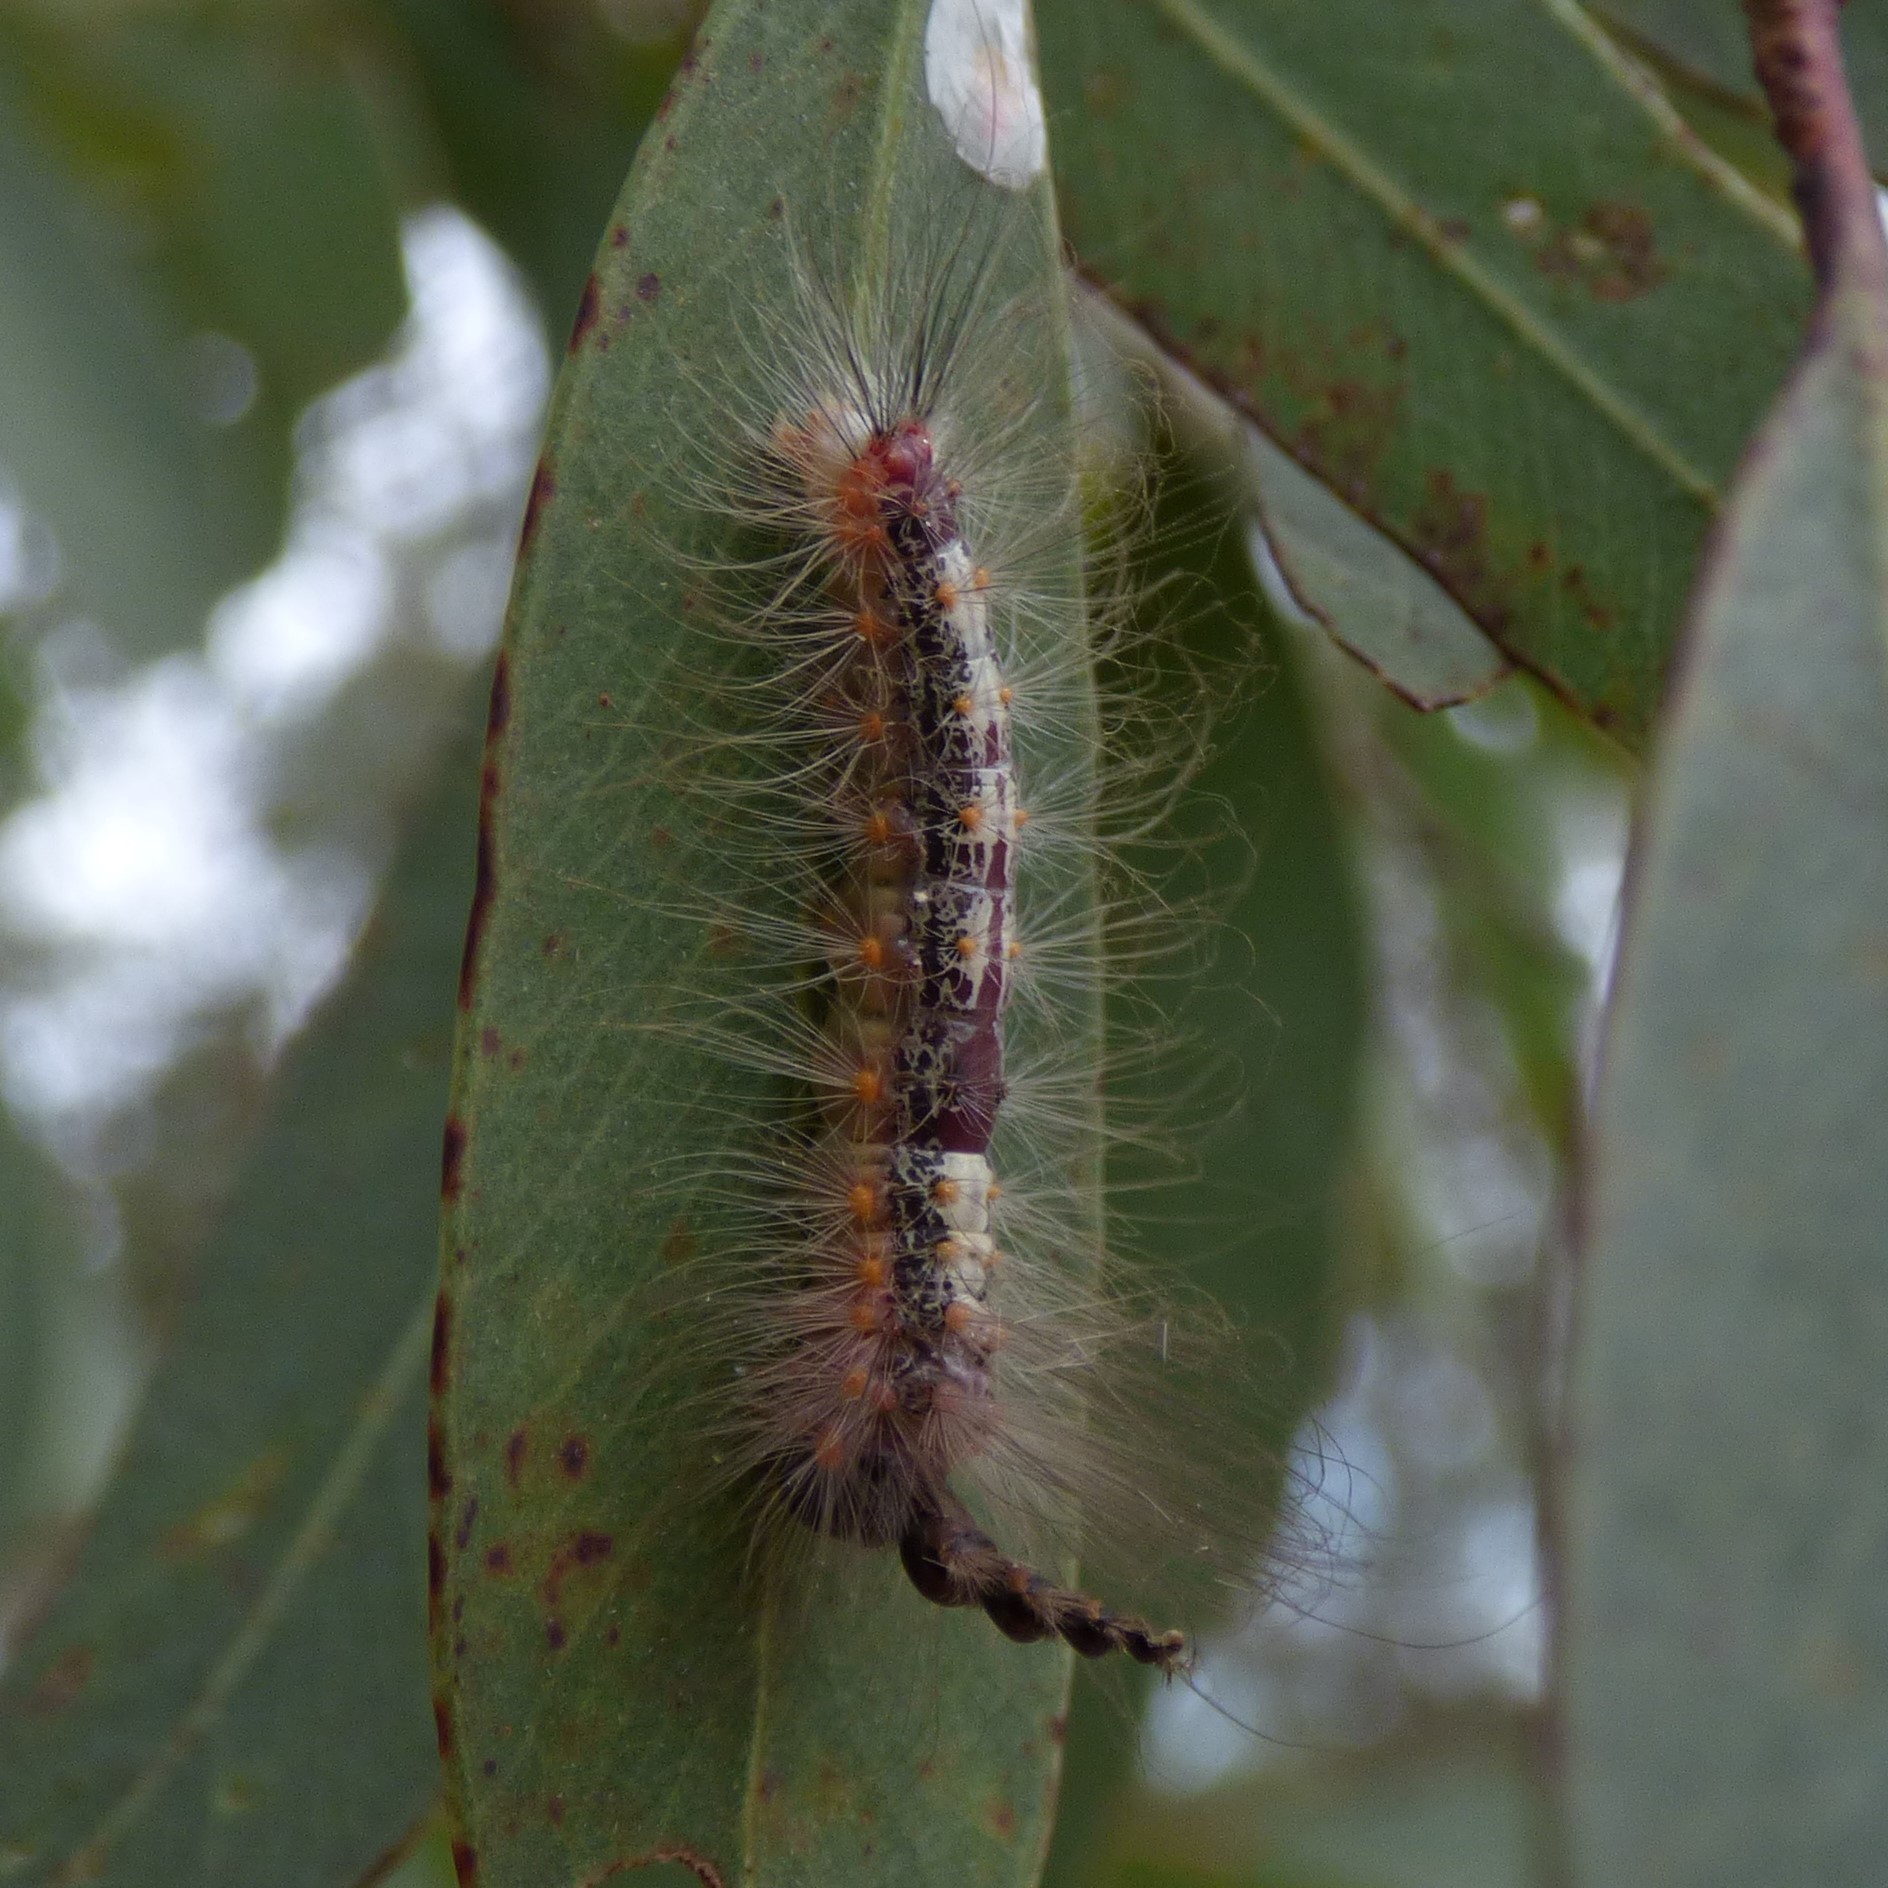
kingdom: Animalia
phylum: Arthropoda
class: Insecta
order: Lepidoptera
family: Nolidae
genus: Uraba
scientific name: Uraba lugens
